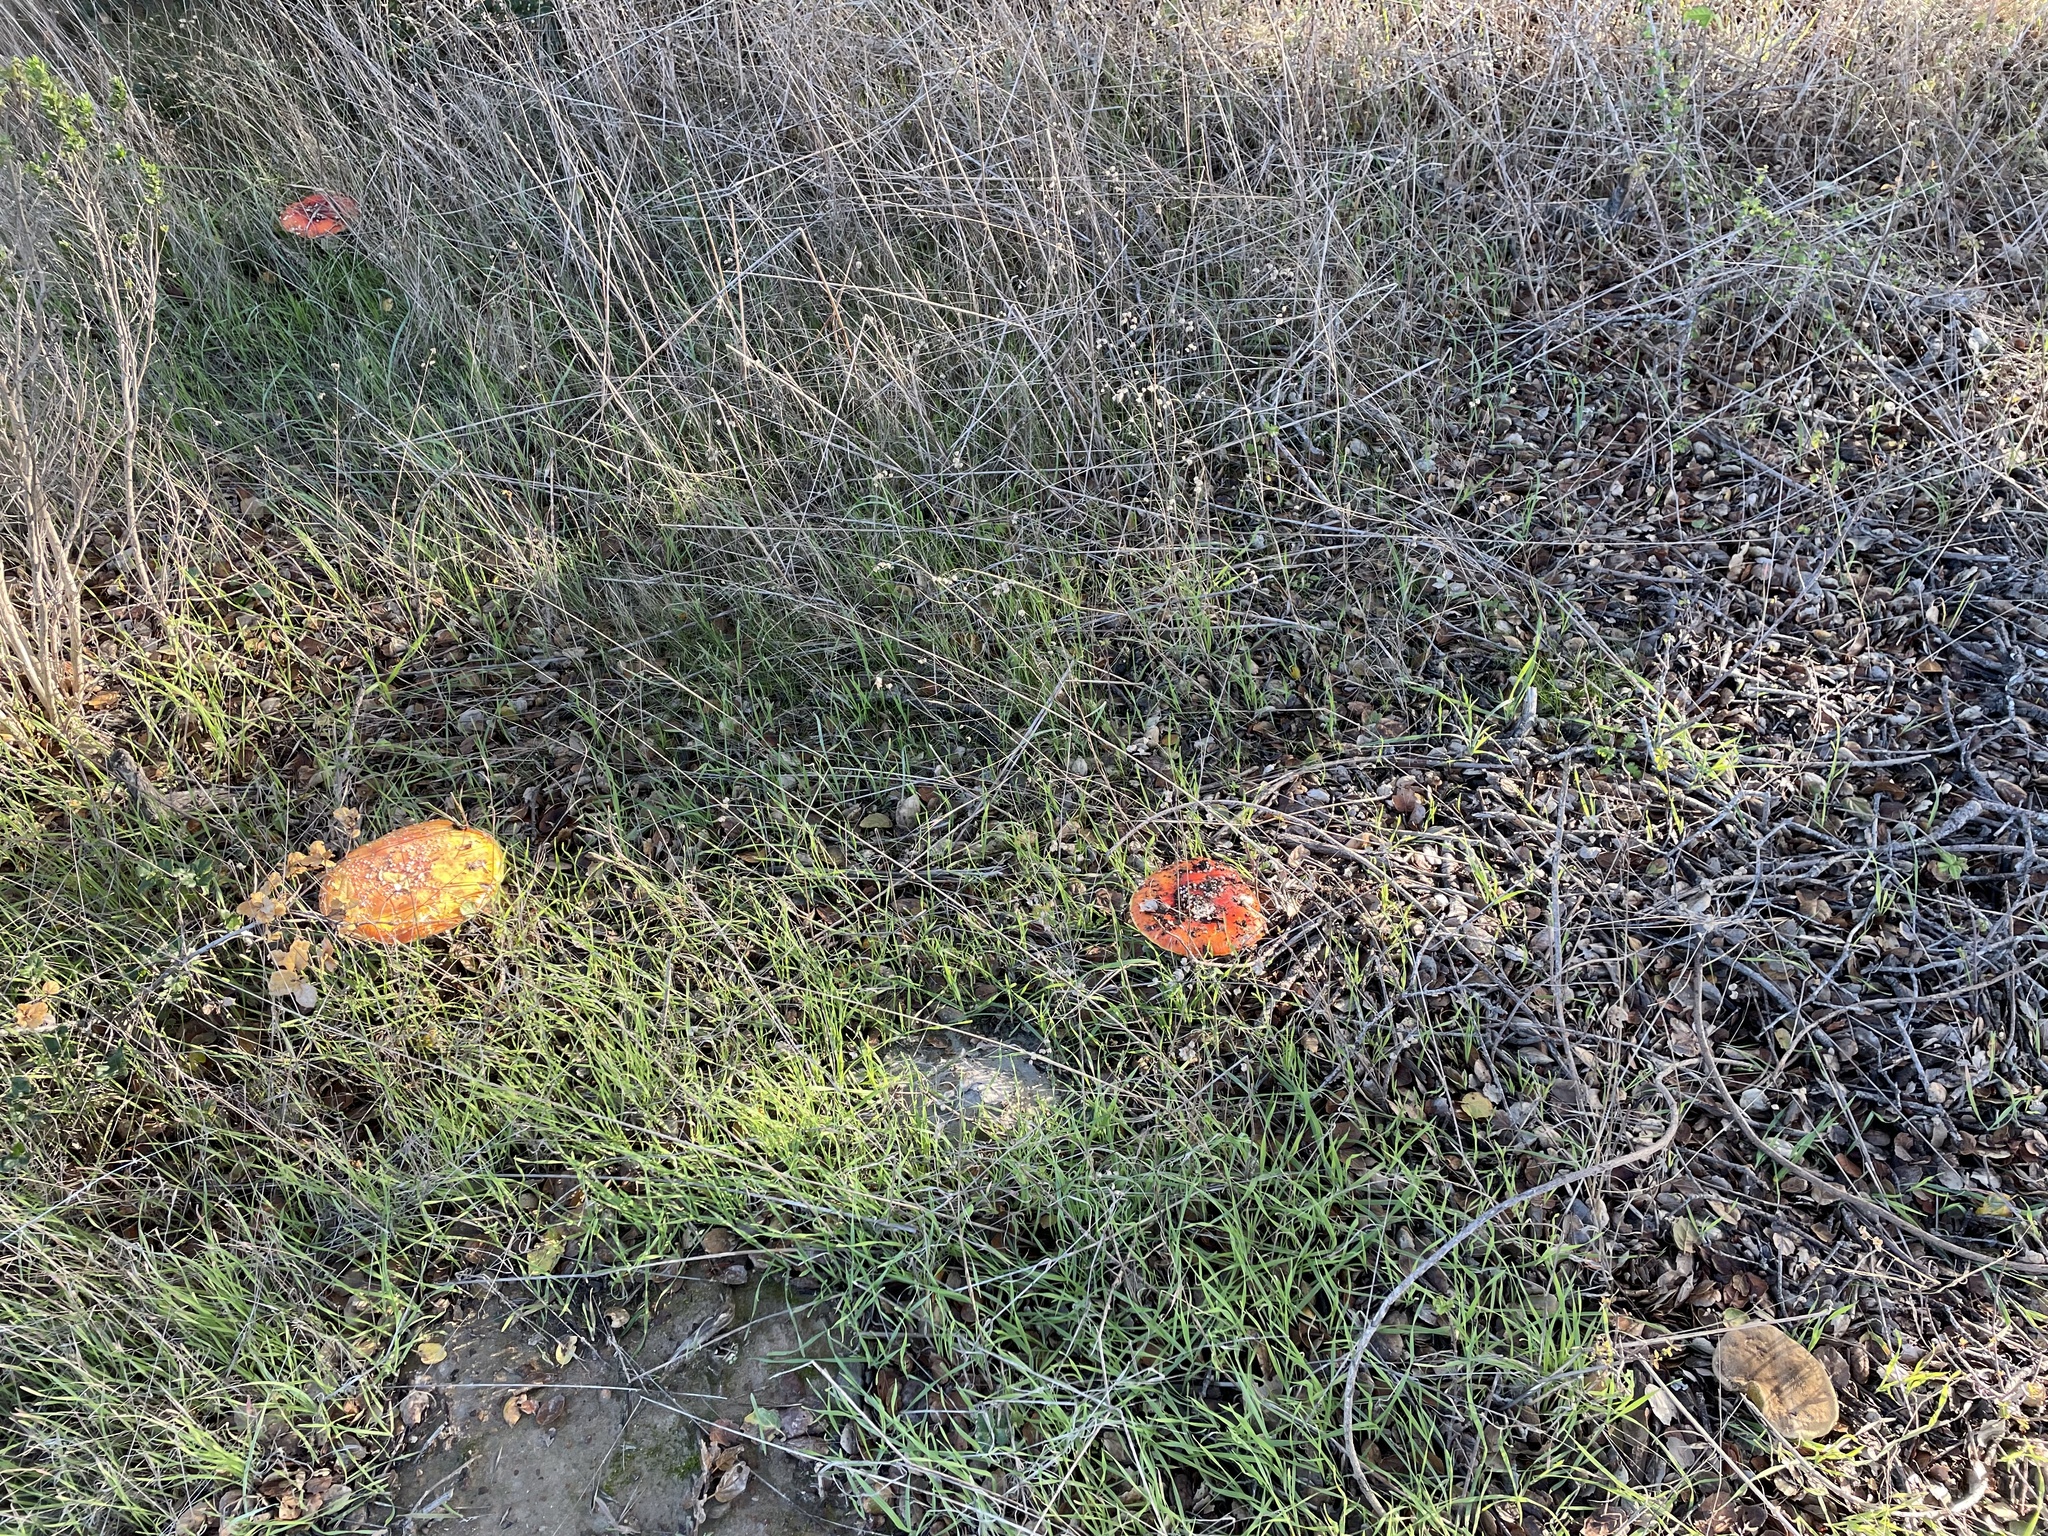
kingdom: Fungi
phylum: Basidiomycota
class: Agaricomycetes
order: Agaricales
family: Amanitaceae
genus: Amanita
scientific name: Amanita muscaria
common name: Fly agaric
